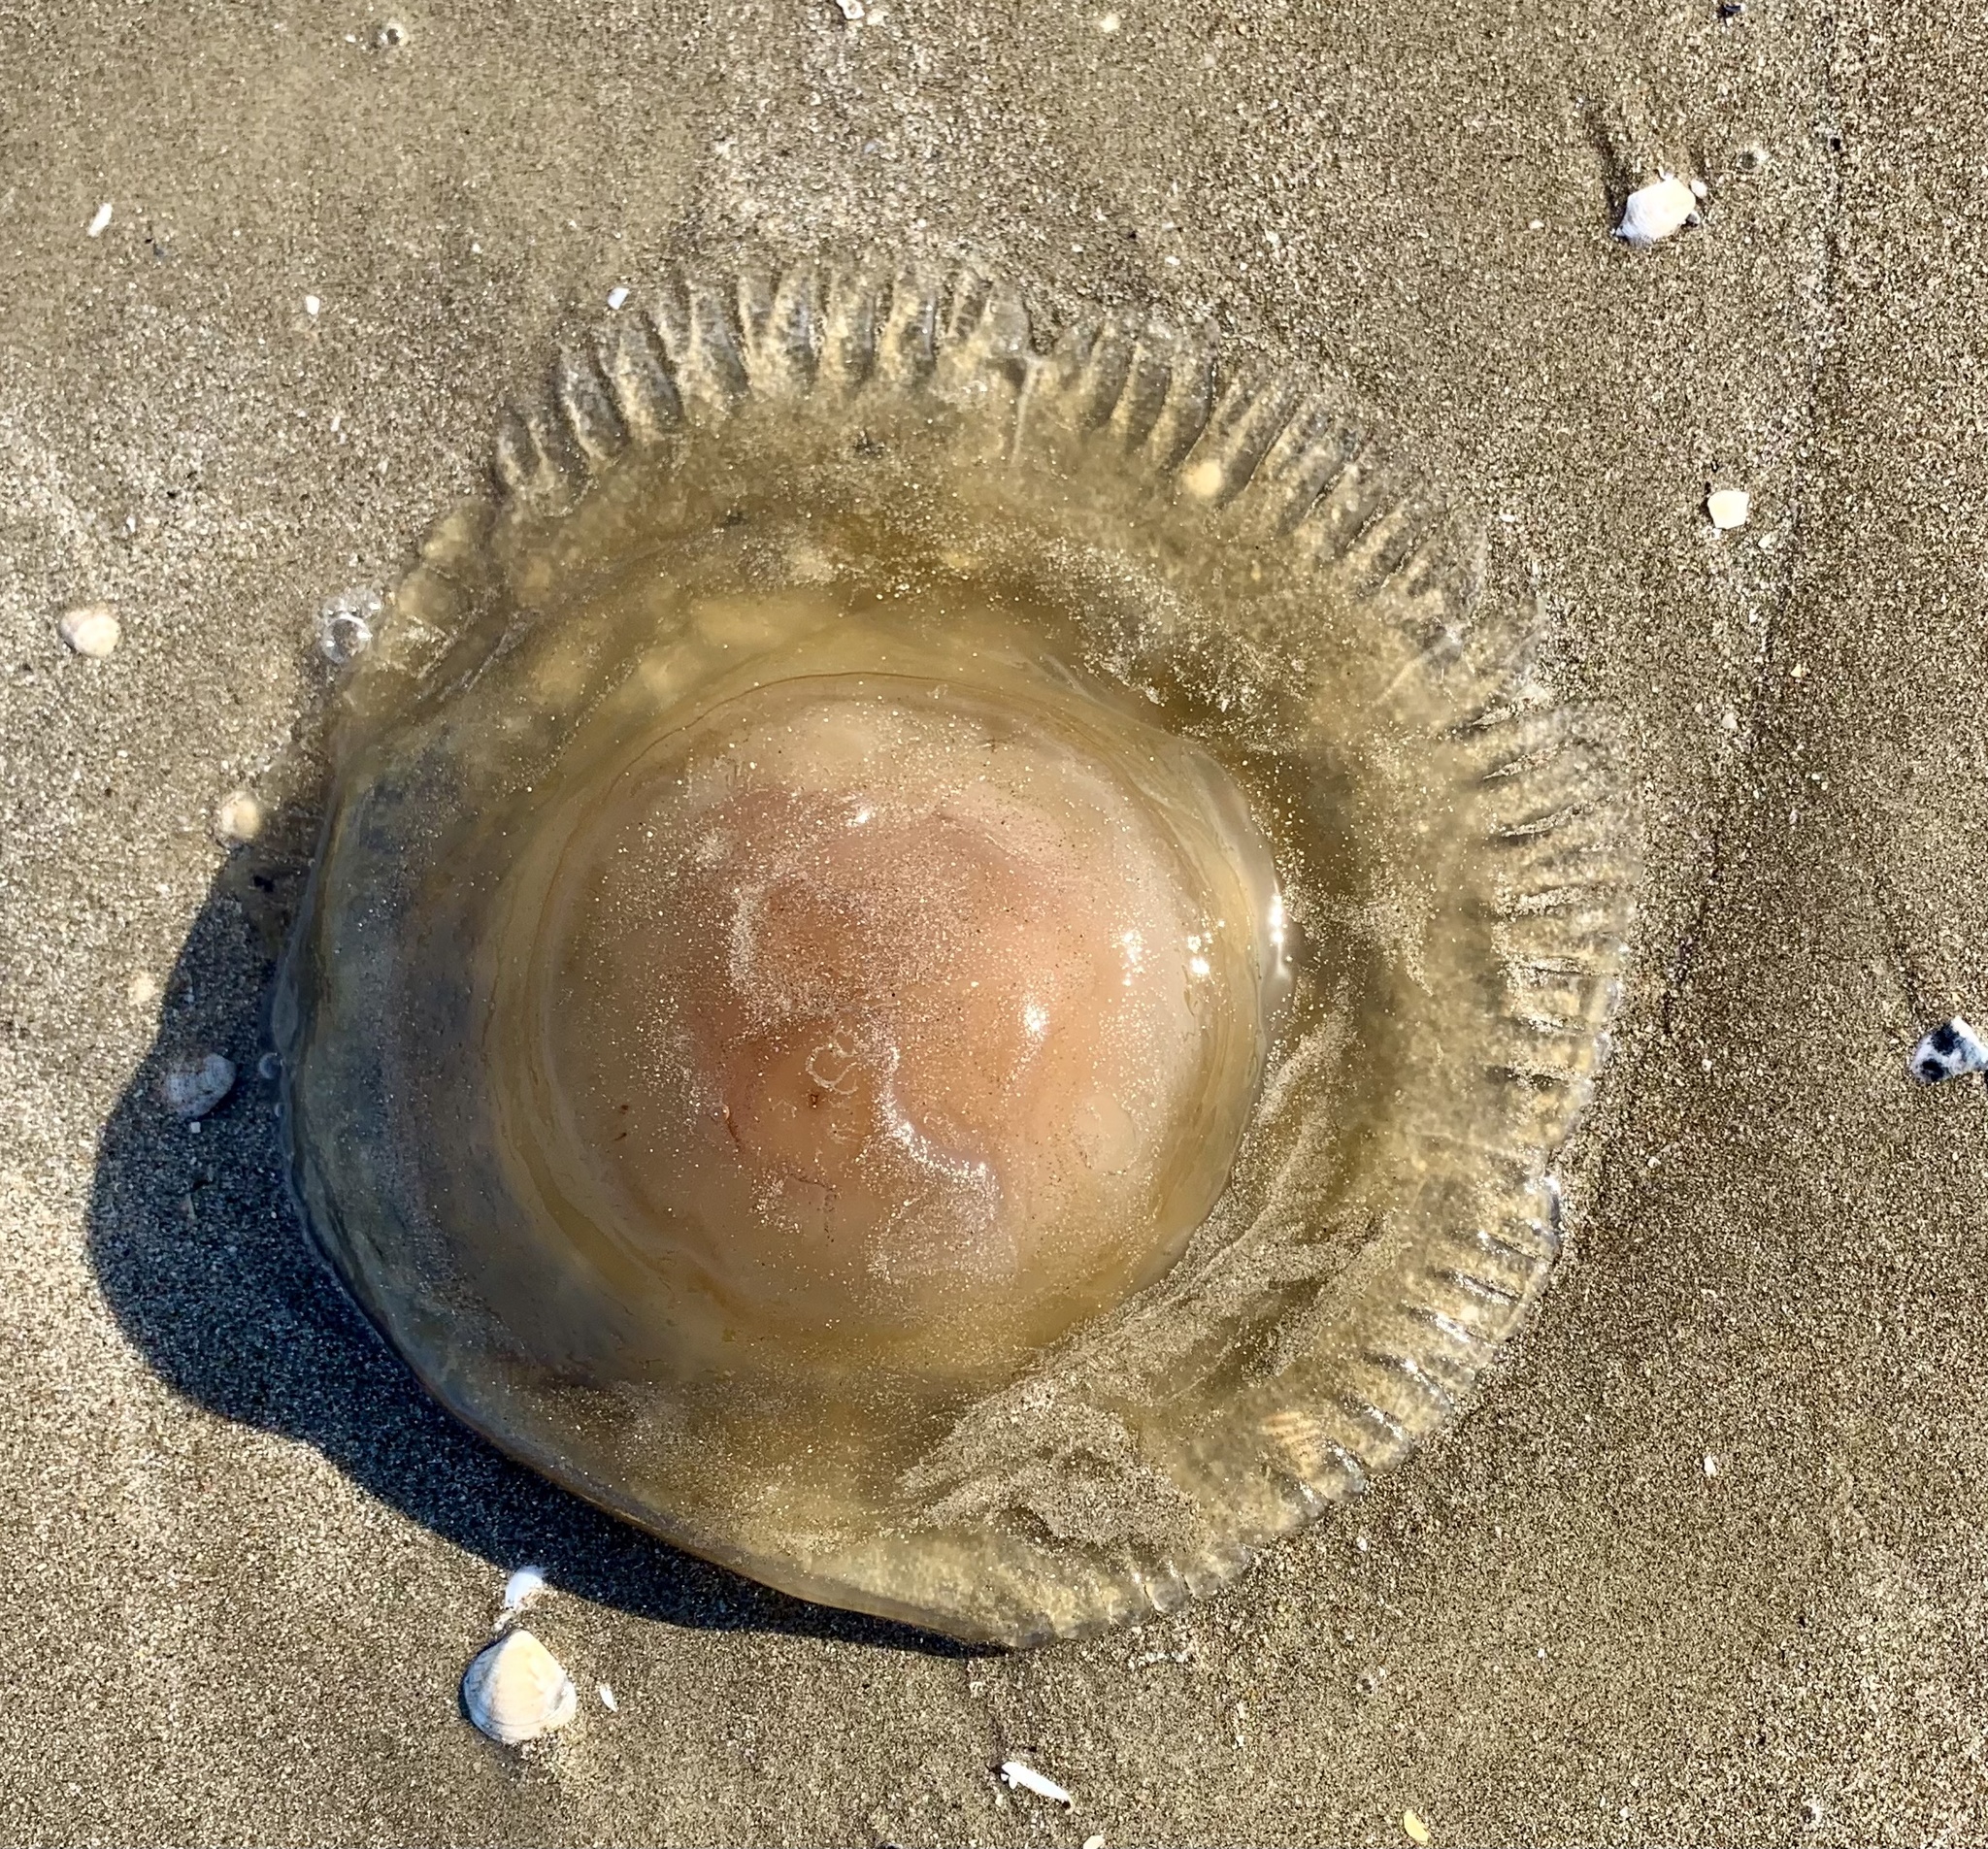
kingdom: Animalia
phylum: Cnidaria
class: Scyphozoa
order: Rhizostomeae
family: Cepheidae
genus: Cotylorhiza
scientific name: Cotylorhiza tuberculata
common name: Mediterranean jelly
